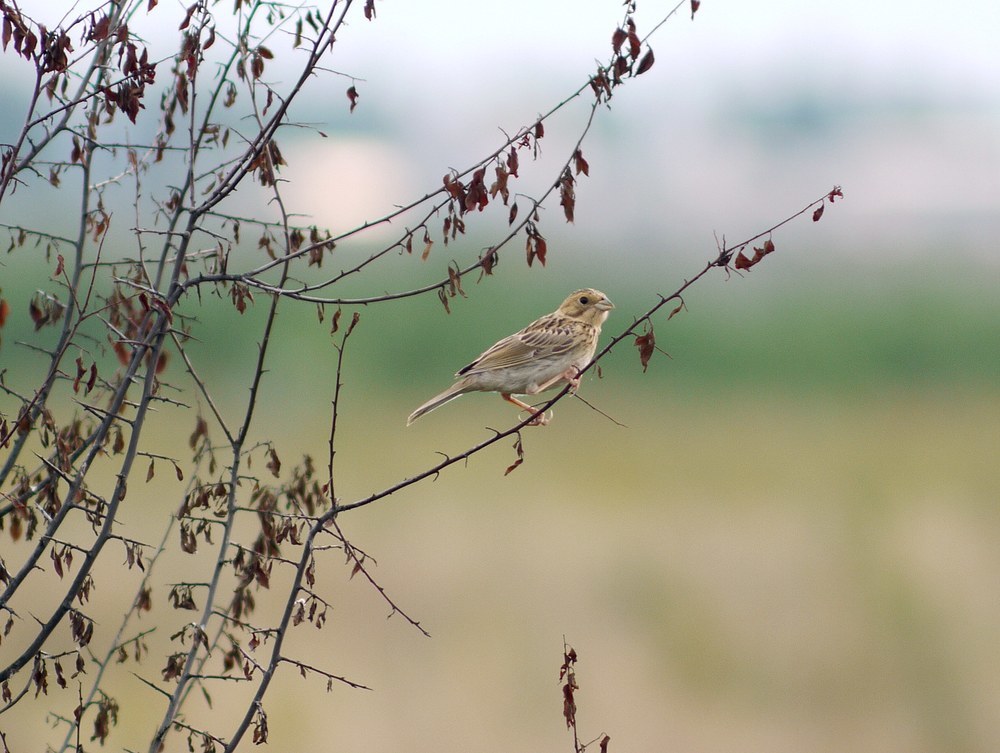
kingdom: Animalia
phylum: Chordata
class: Aves
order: Passeriformes
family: Emberizidae
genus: Emberiza
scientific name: Emberiza calandra
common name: Corn bunting
